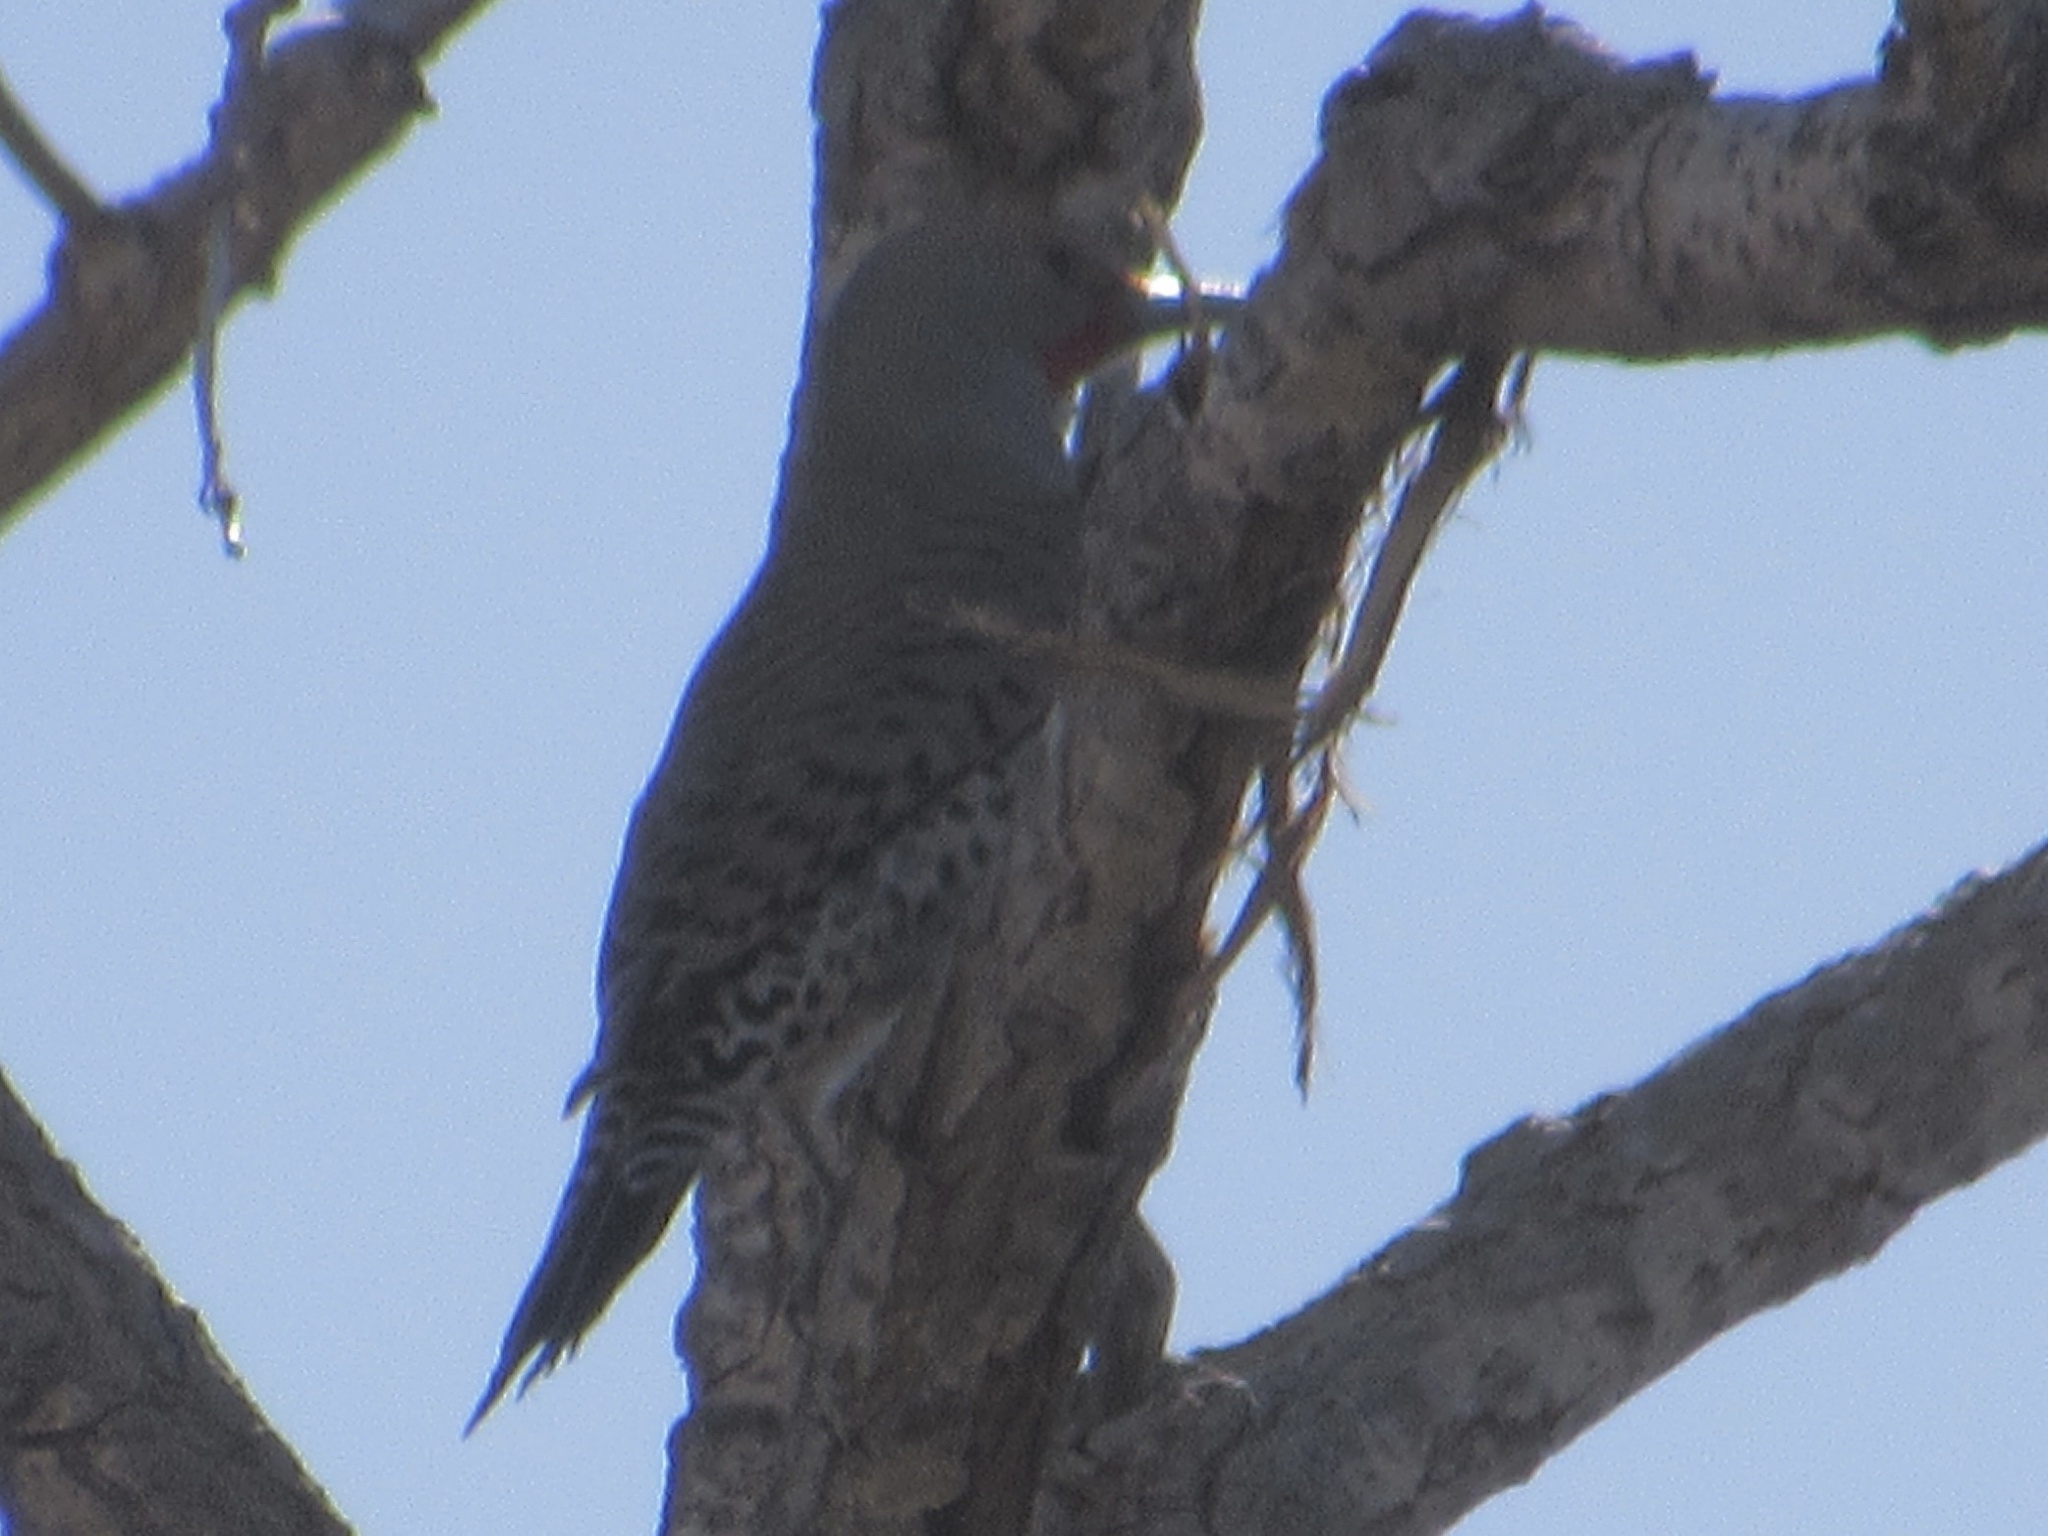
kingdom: Animalia
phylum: Chordata
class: Aves
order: Piciformes
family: Picidae
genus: Colaptes
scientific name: Colaptes auratus
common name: Northern flicker
